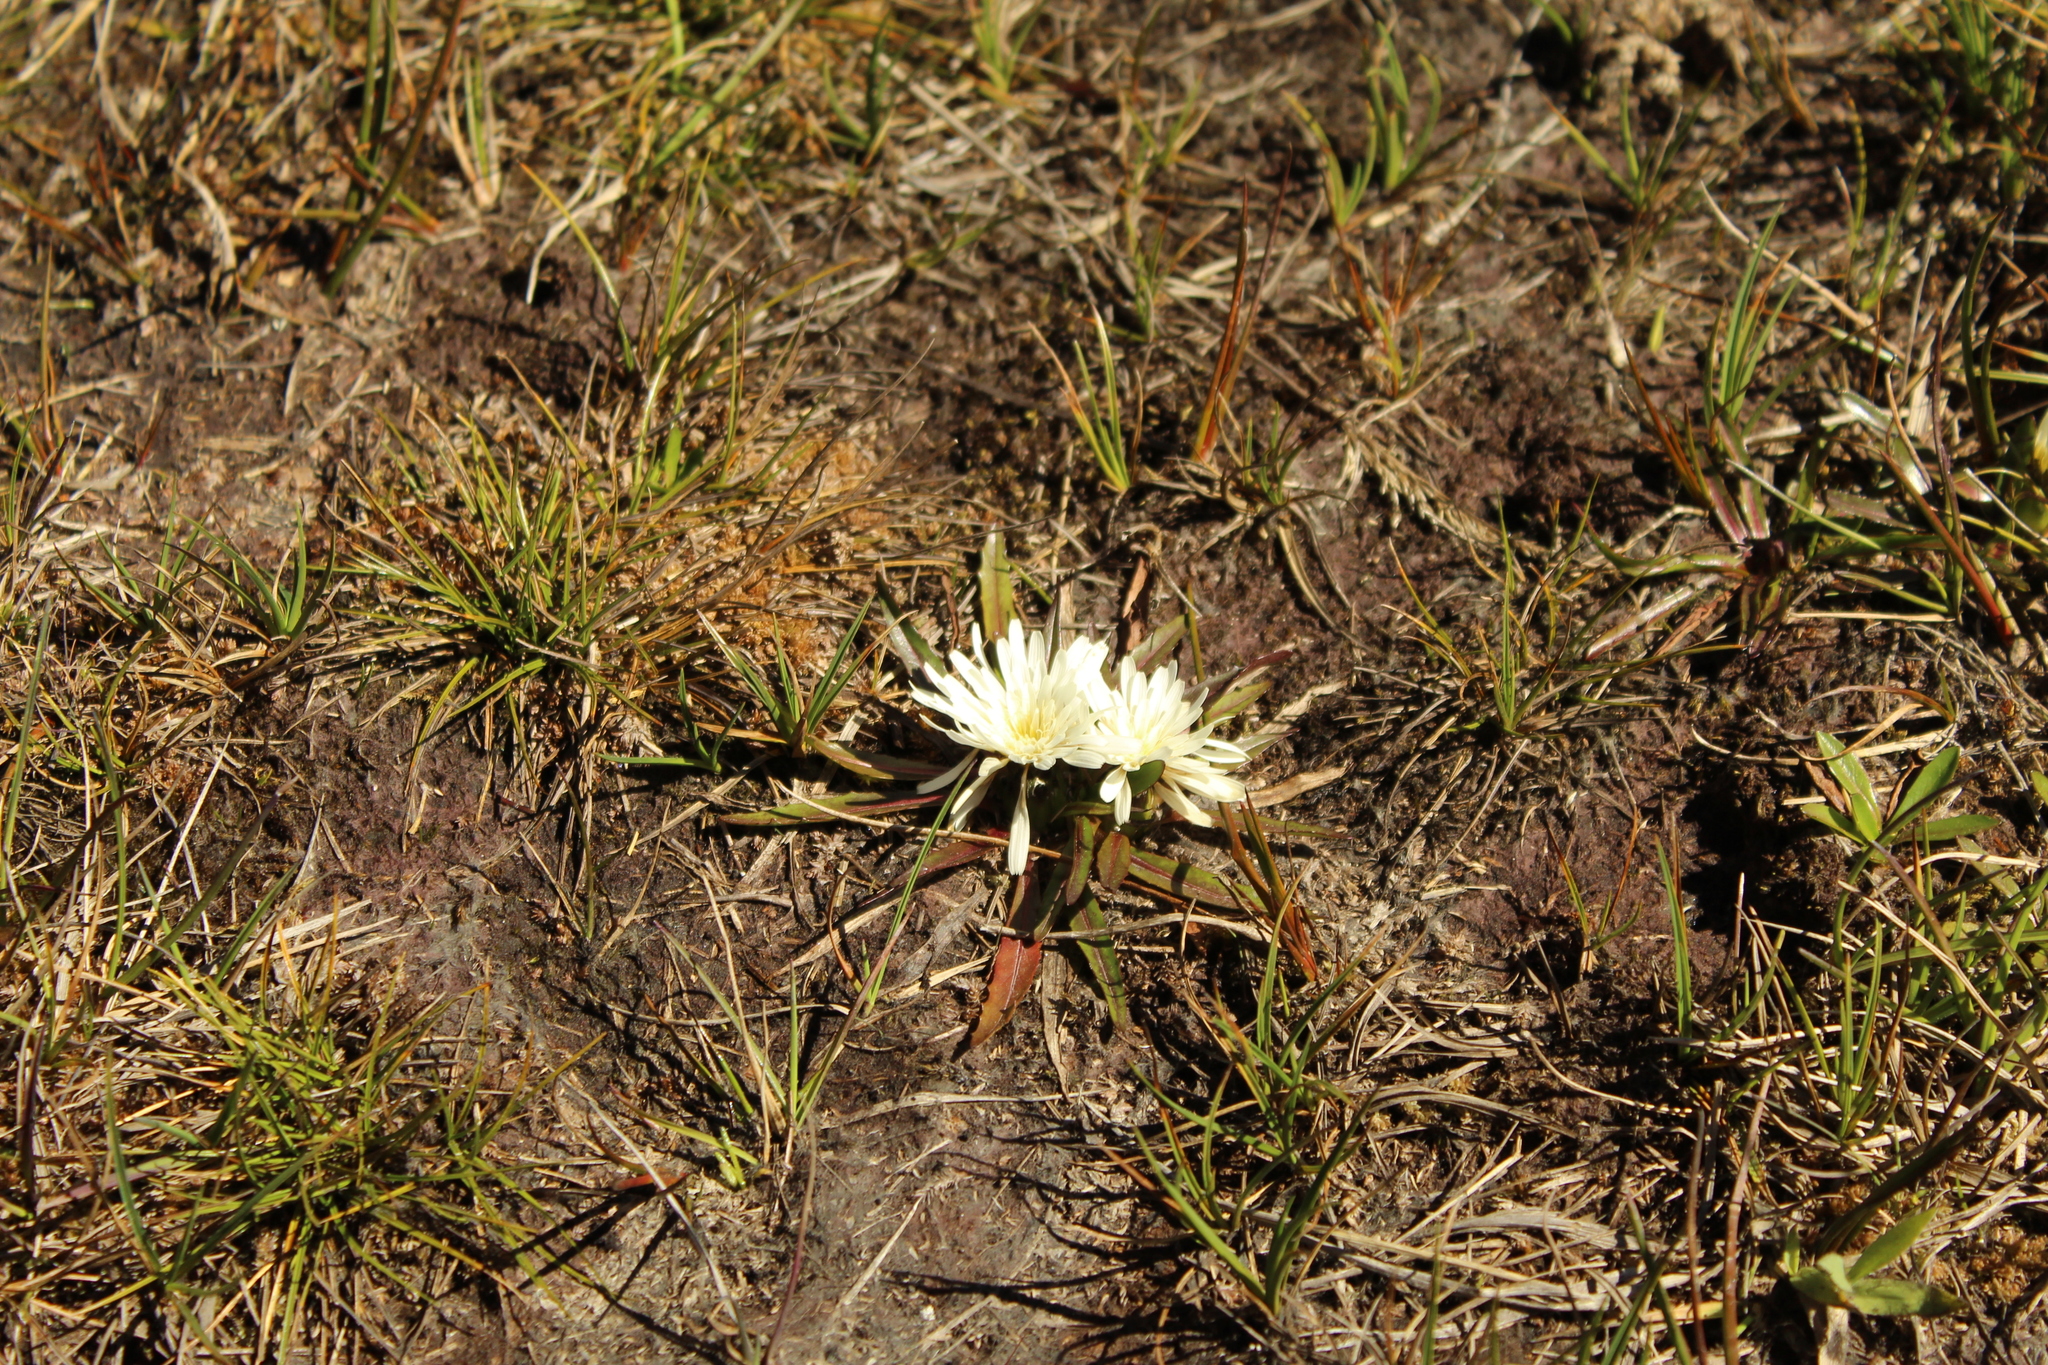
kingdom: Plantae
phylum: Tracheophyta
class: Magnoliopsida
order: Asterales
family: Asteraceae
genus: Hypochaeris
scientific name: Hypochaeris sessiliflora
